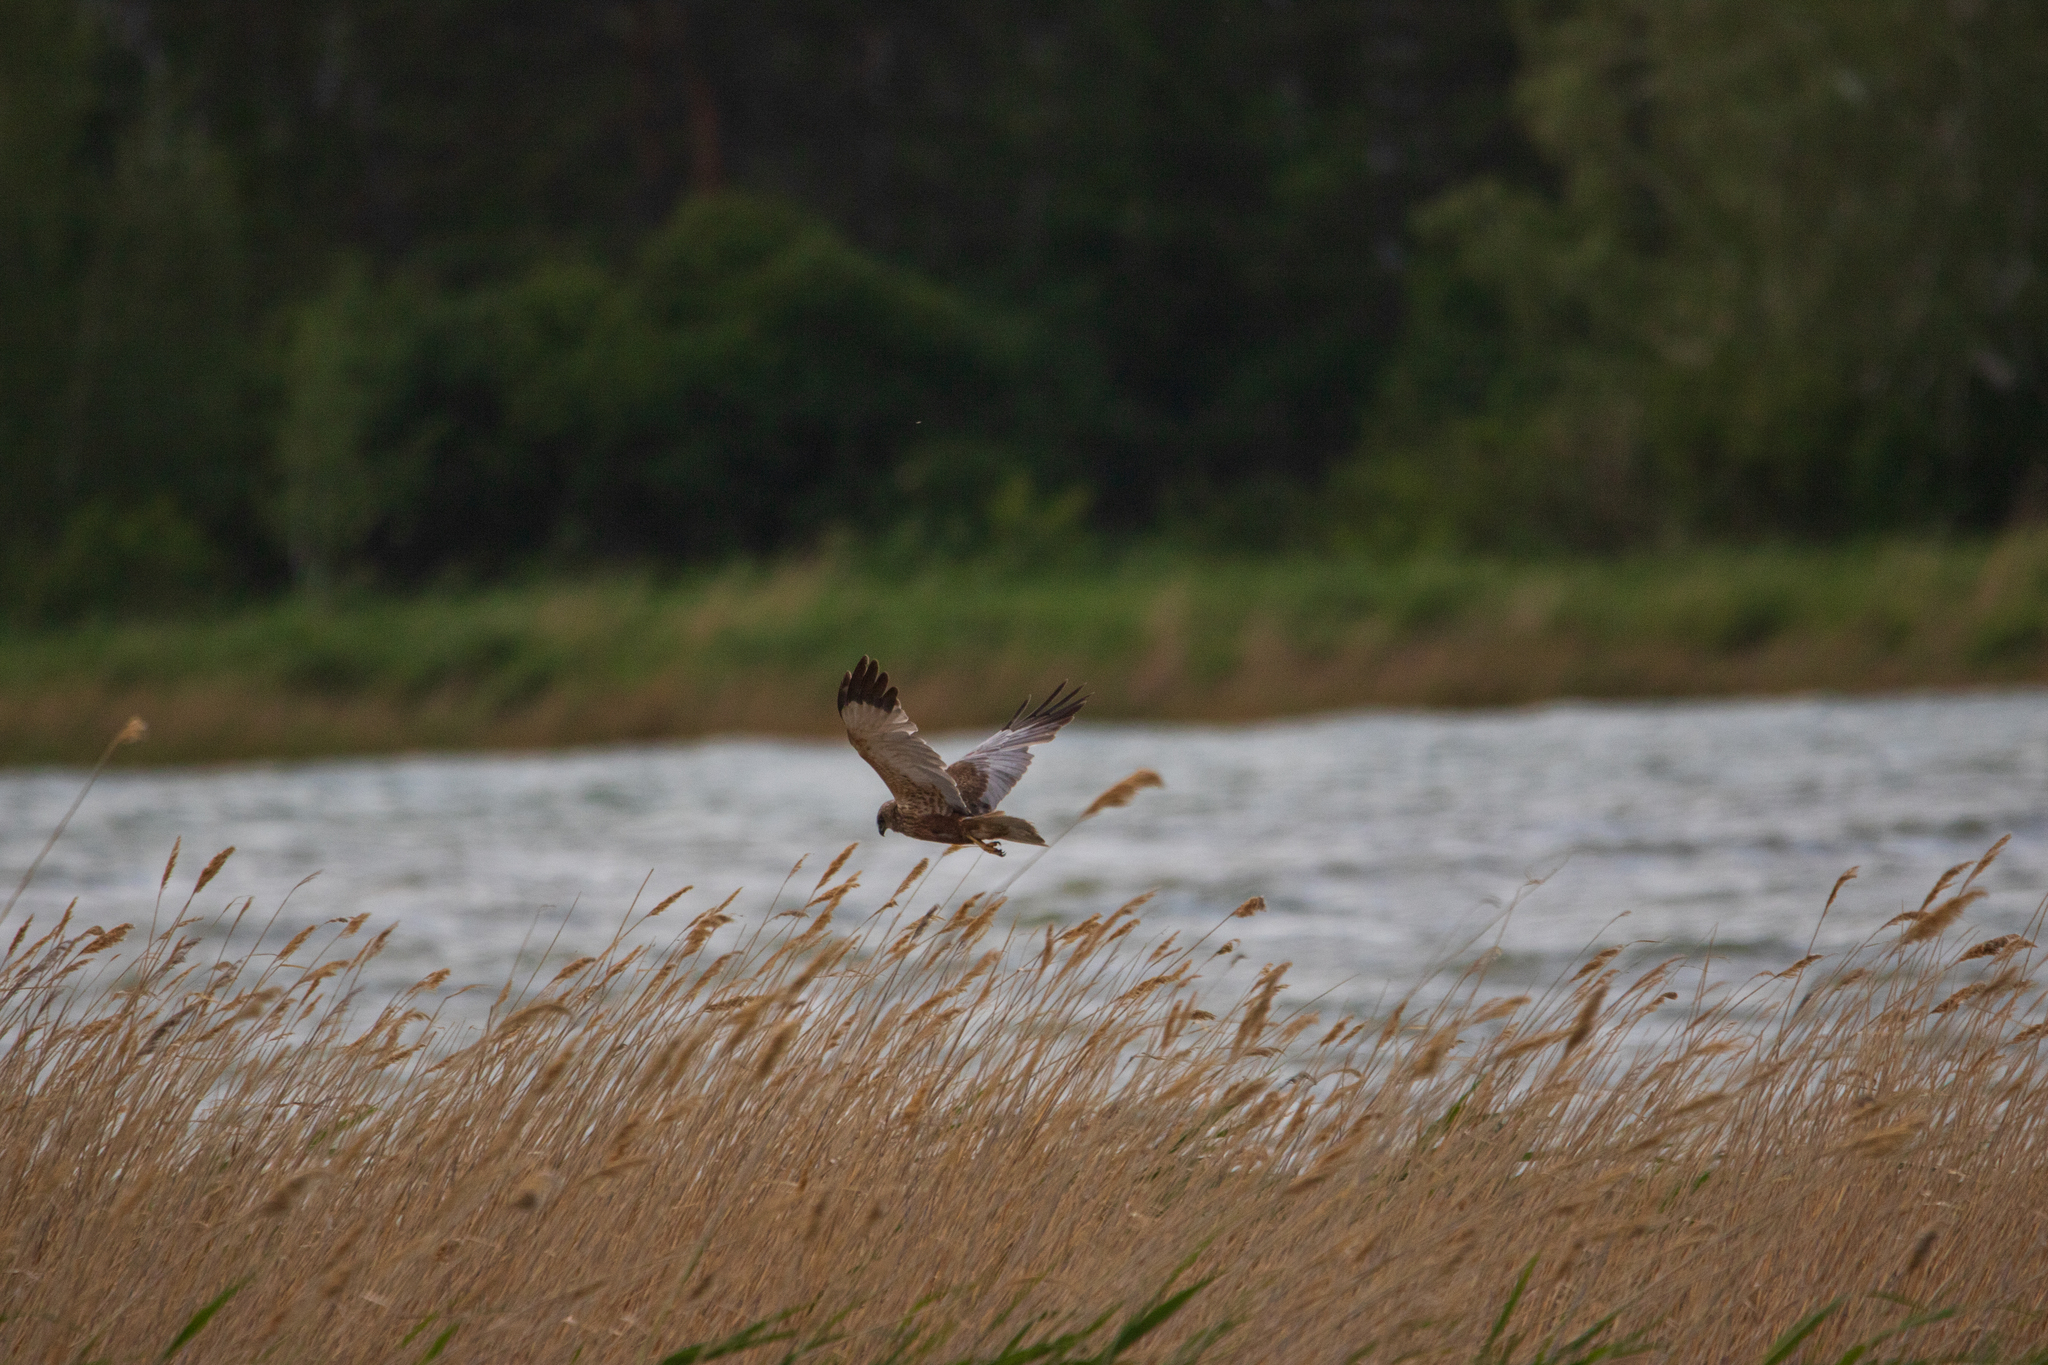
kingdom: Animalia
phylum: Chordata
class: Aves
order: Accipitriformes
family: Accipitridae
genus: Circus
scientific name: Circus aeruginosus
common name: Western marsh harrier
